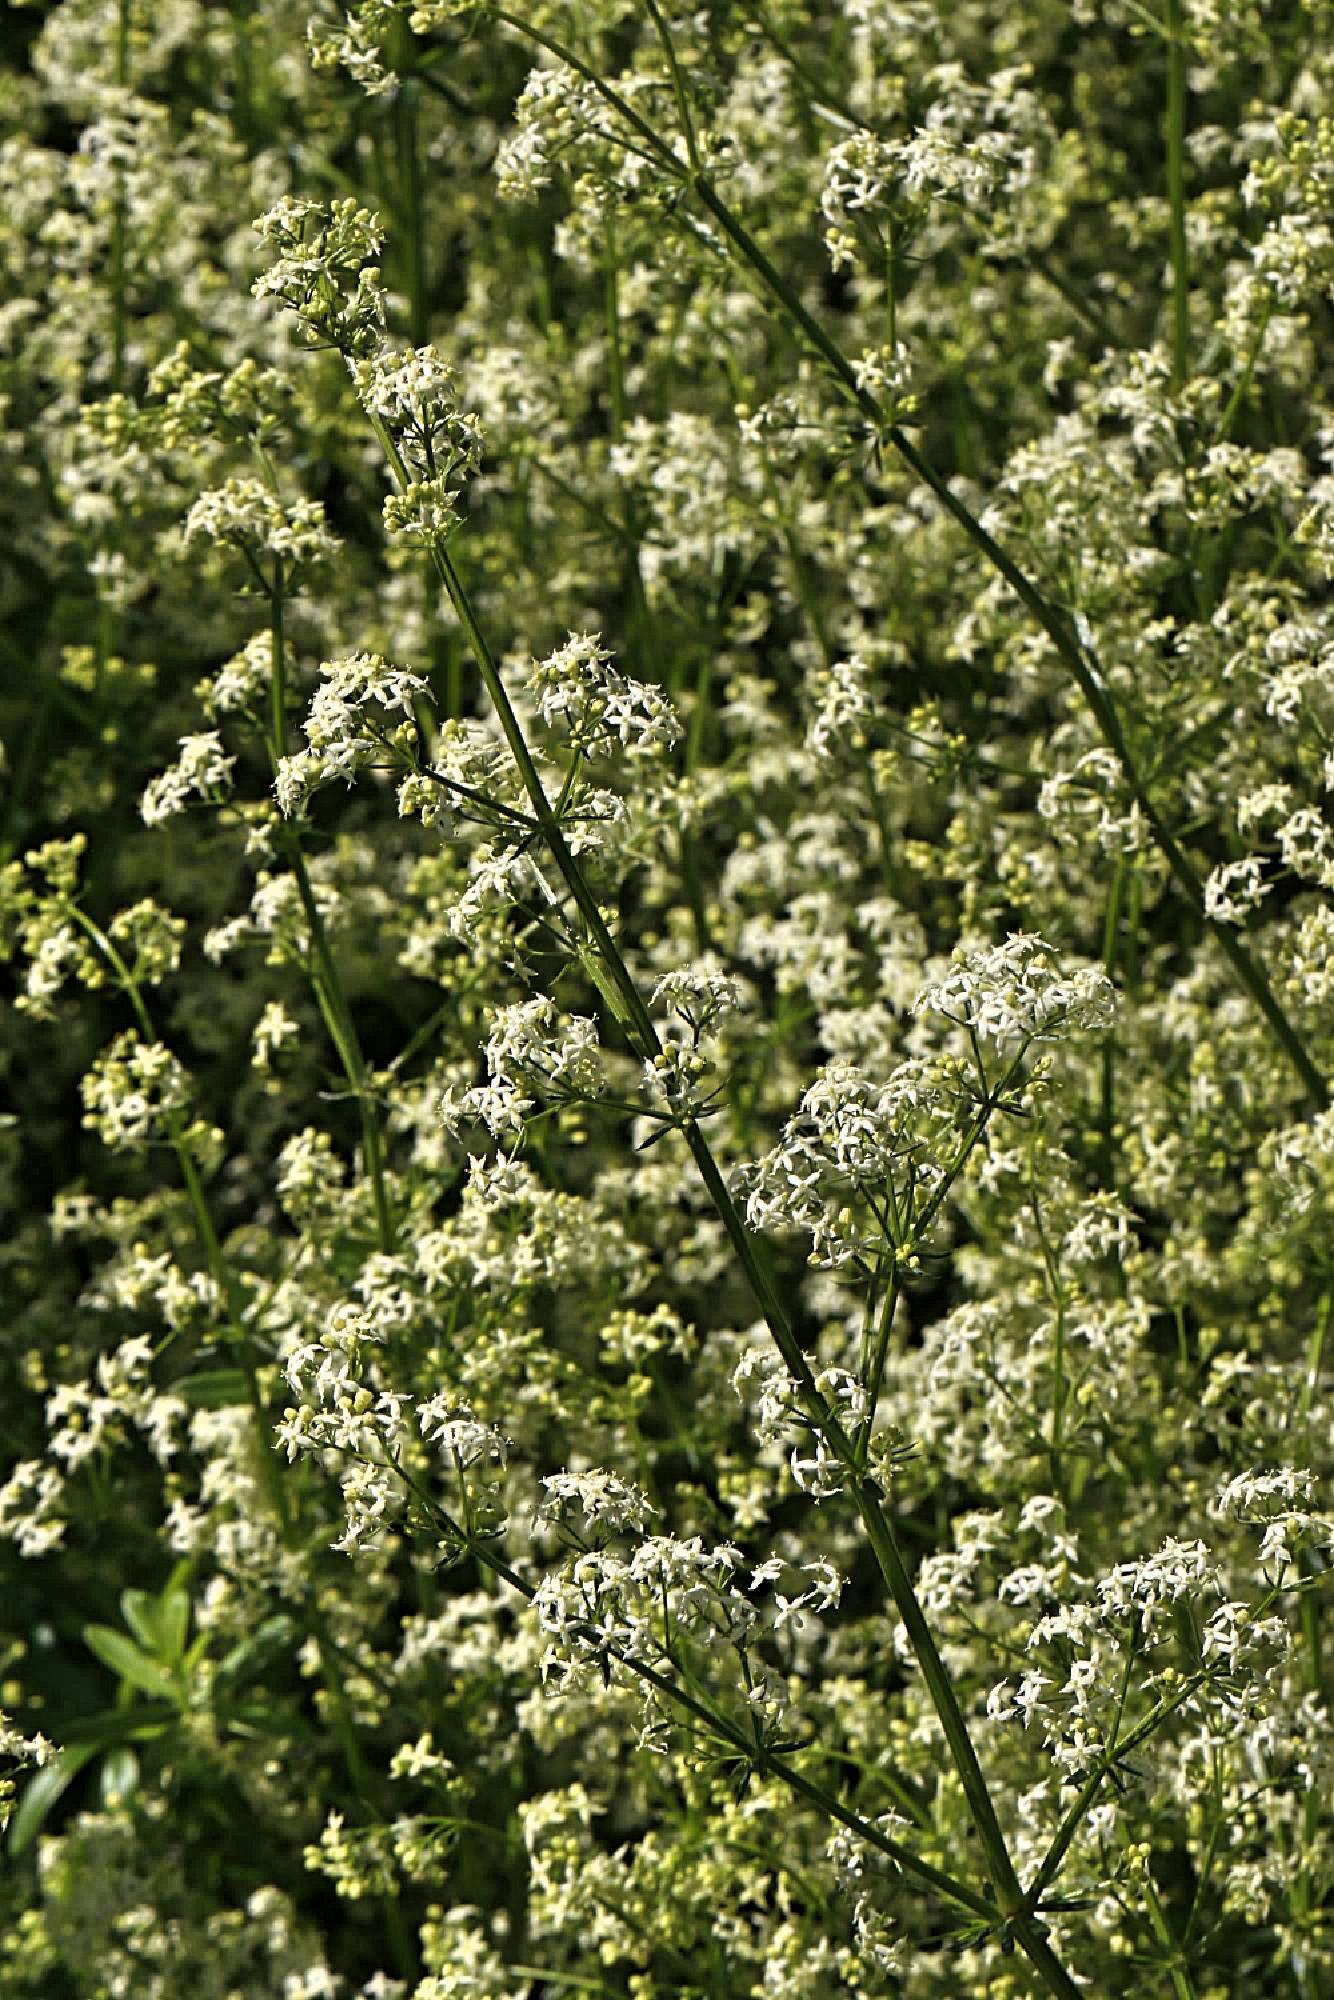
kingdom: Plantae
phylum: Tracheophyta
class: Magnoliopsida
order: Gentianales
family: Rubiaceae
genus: Galium
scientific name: Galium mollugo
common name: Hedge bedstraw
